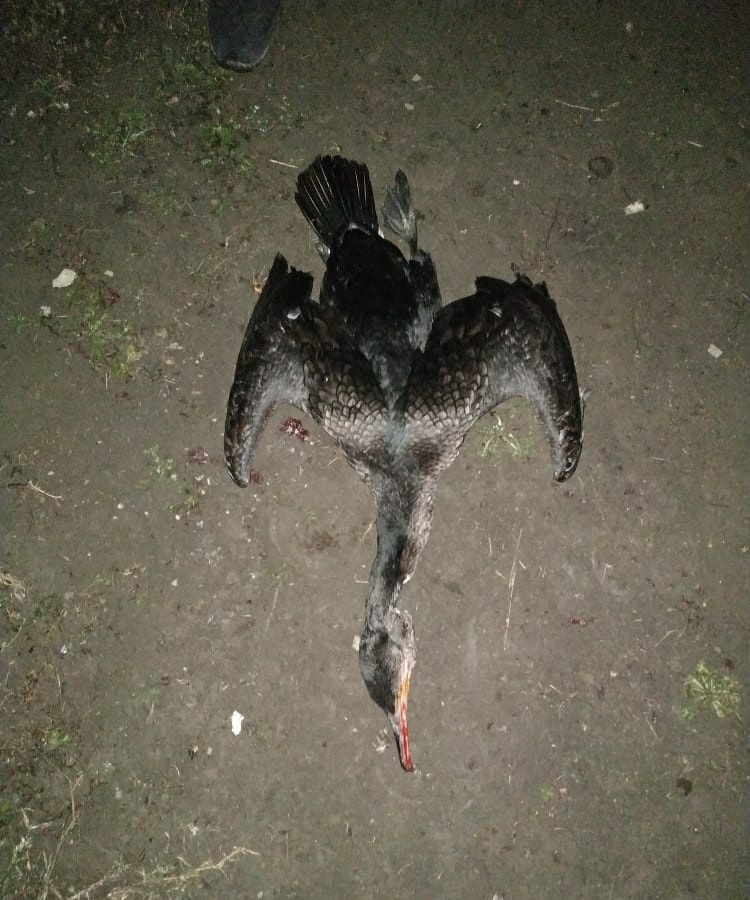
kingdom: Animalia
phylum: Chordata
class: Aves
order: Suliformes
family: Phalacrocoracidae
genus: Phalacrocorax
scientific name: Phalacrocorax carbo
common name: Great cormorant
